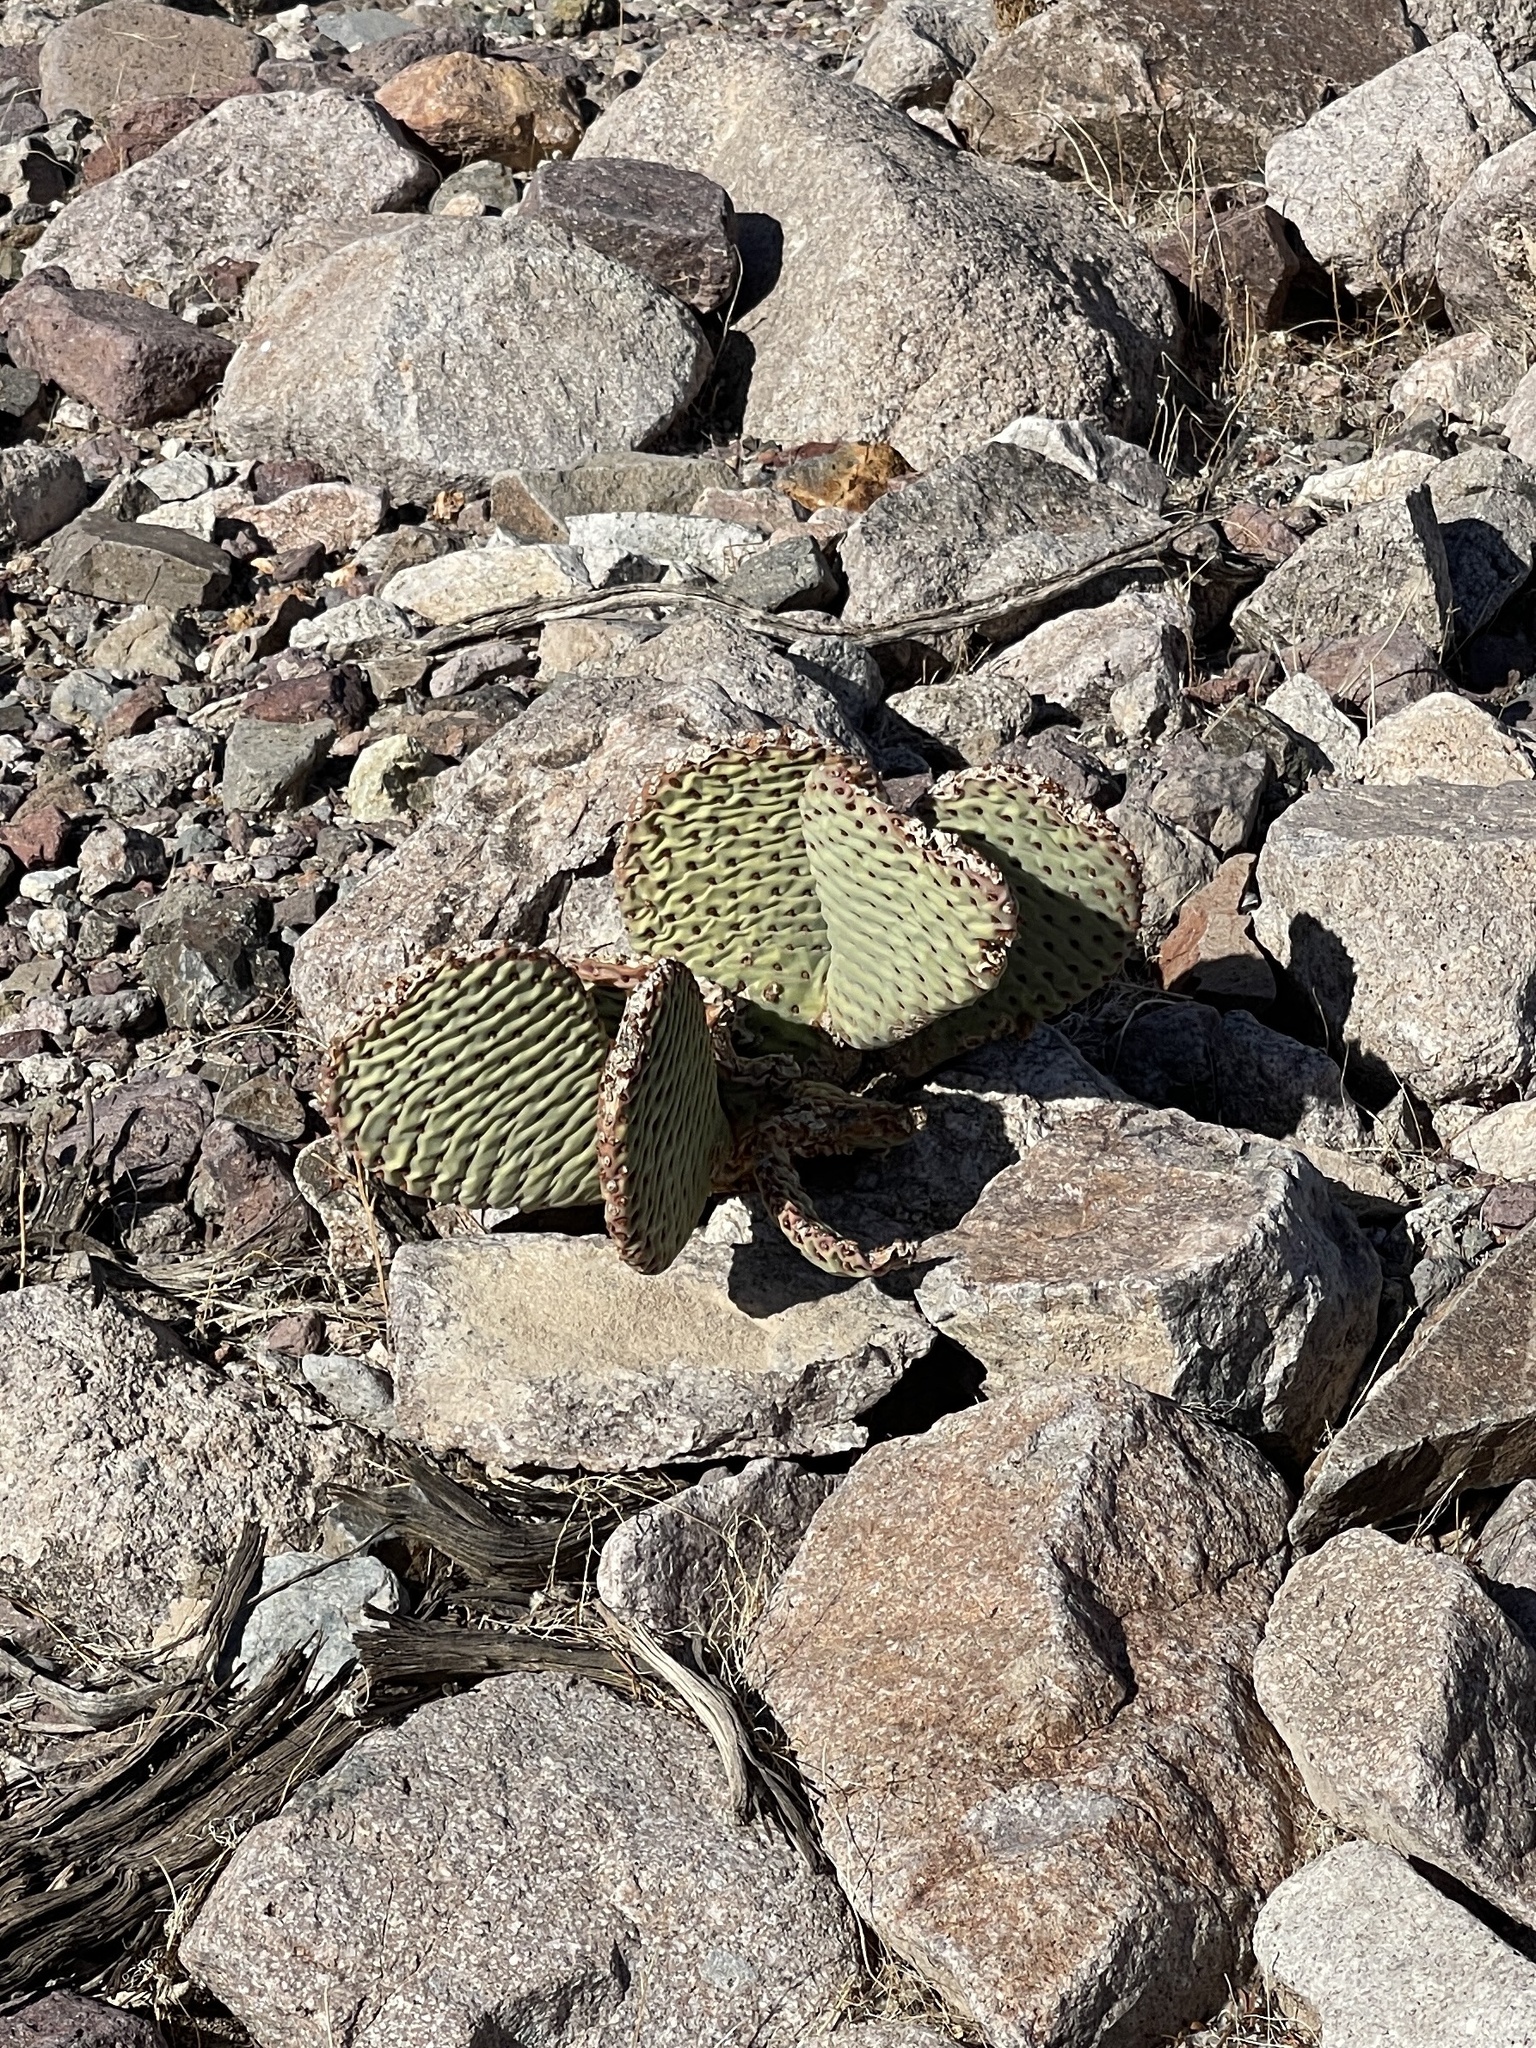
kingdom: Plantae
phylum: Tracheophyta
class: Magnoliopsida
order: Caryophyllales
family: Cactaceae
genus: Opuntia
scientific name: Opuntia basilaris
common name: Beavertail prickly-pear
